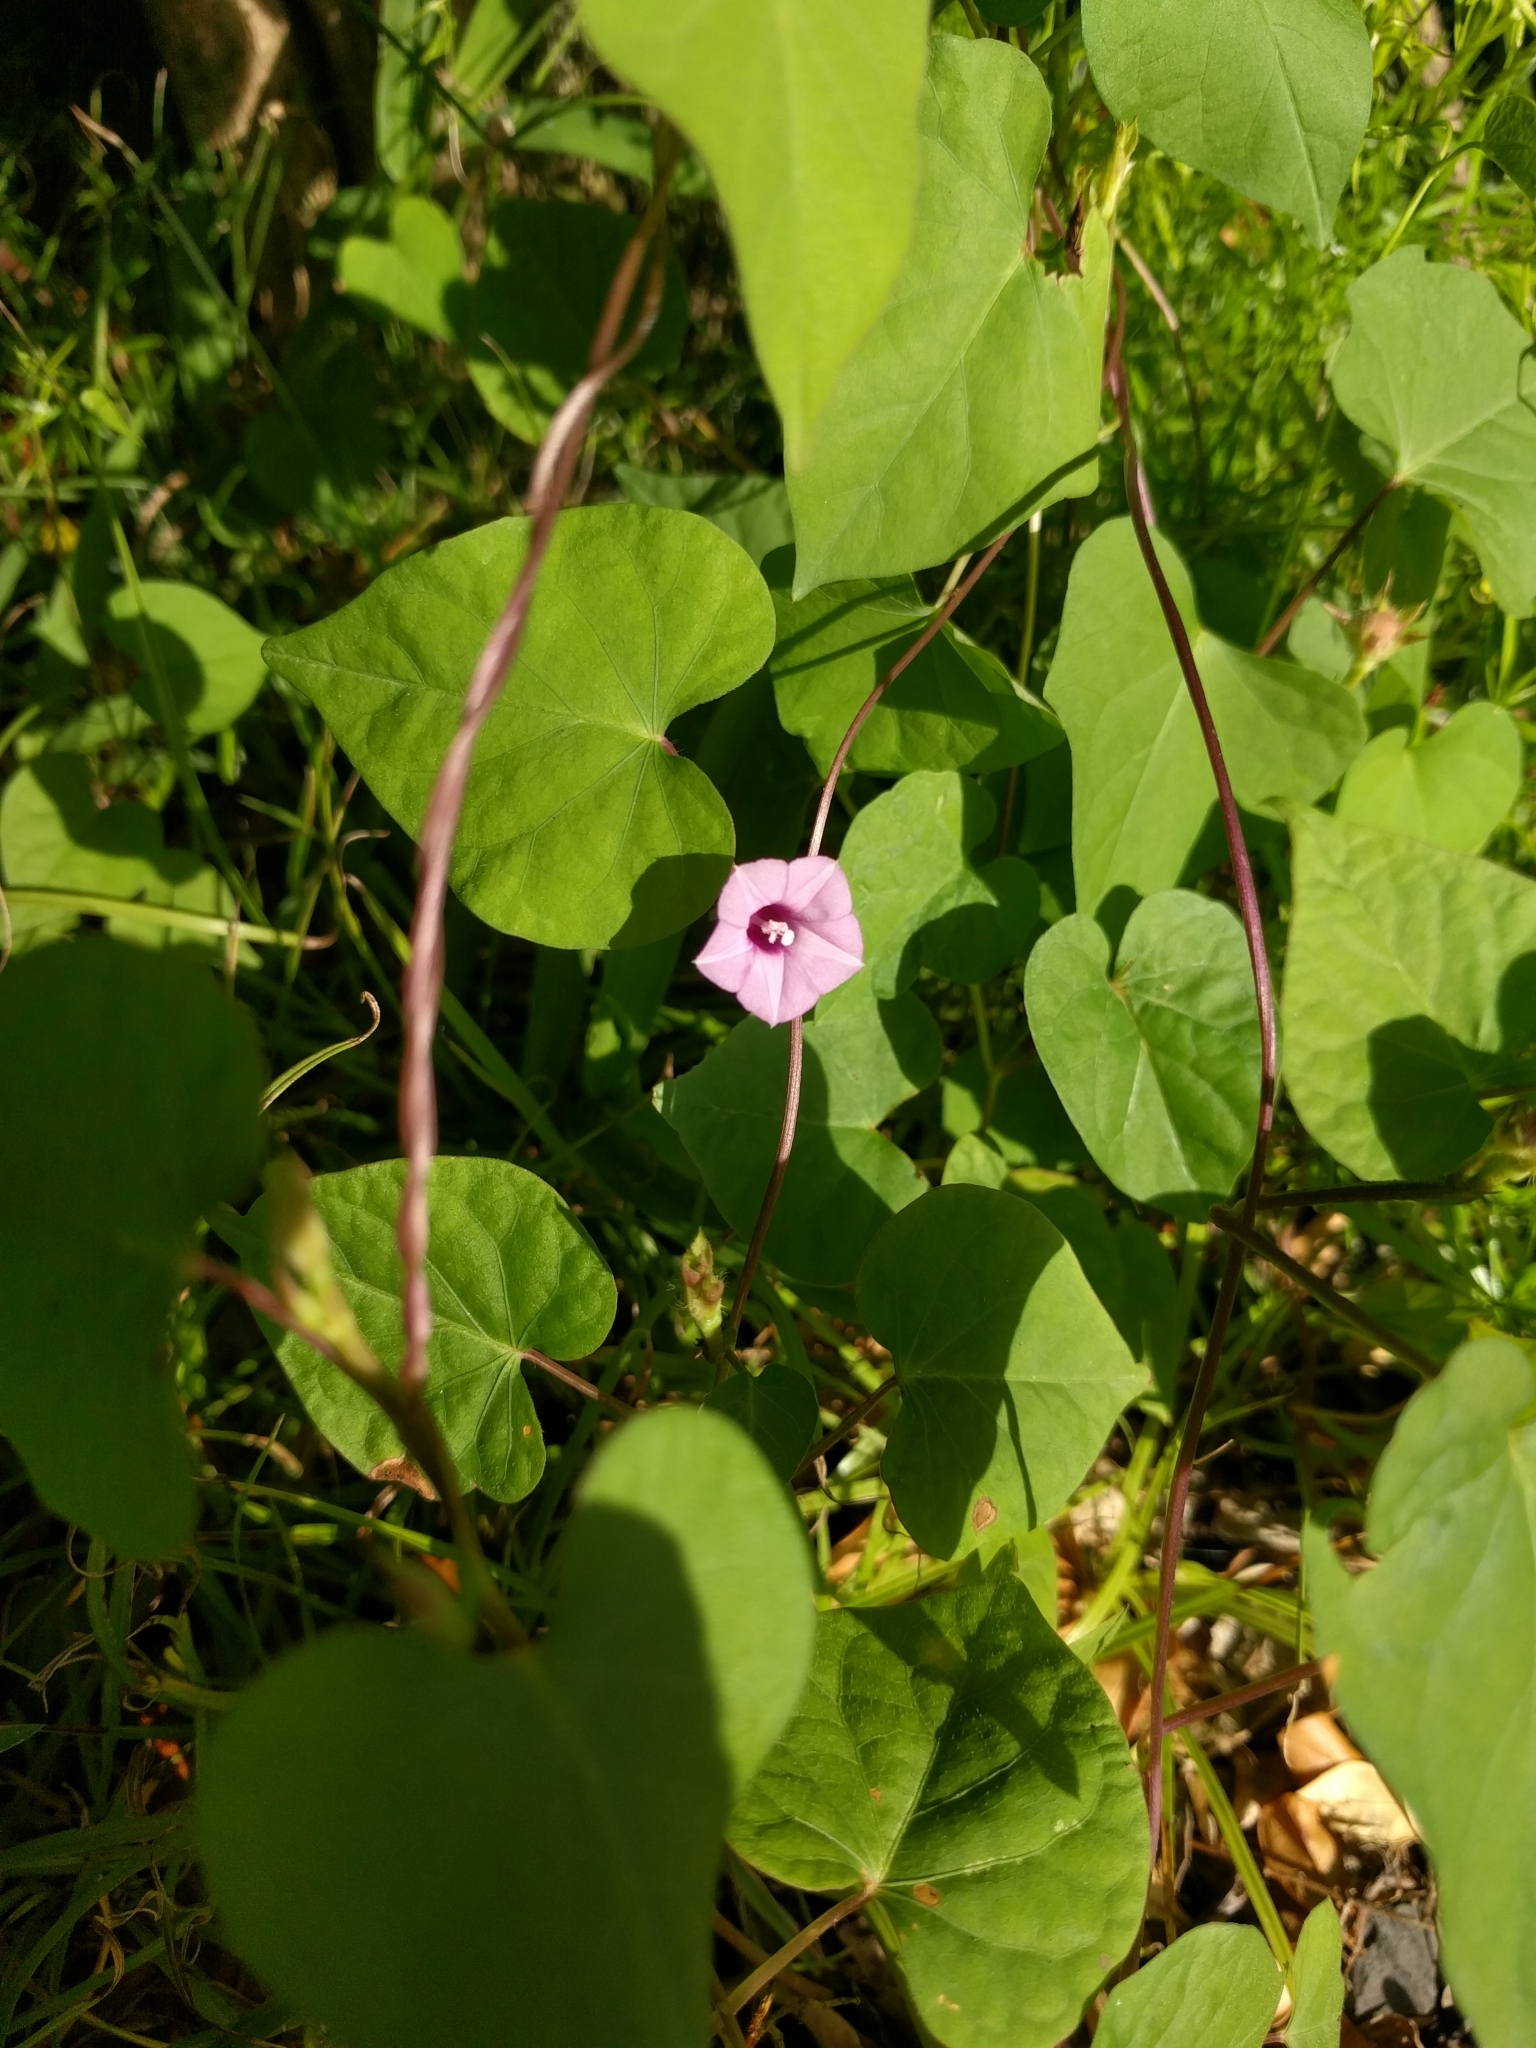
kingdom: Plantae
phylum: Tracheophyta
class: Magnoliopsida
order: Solanales
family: Convolvulaceae
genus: Ipomoea
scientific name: Ipomoea triloba
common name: Little-bell
